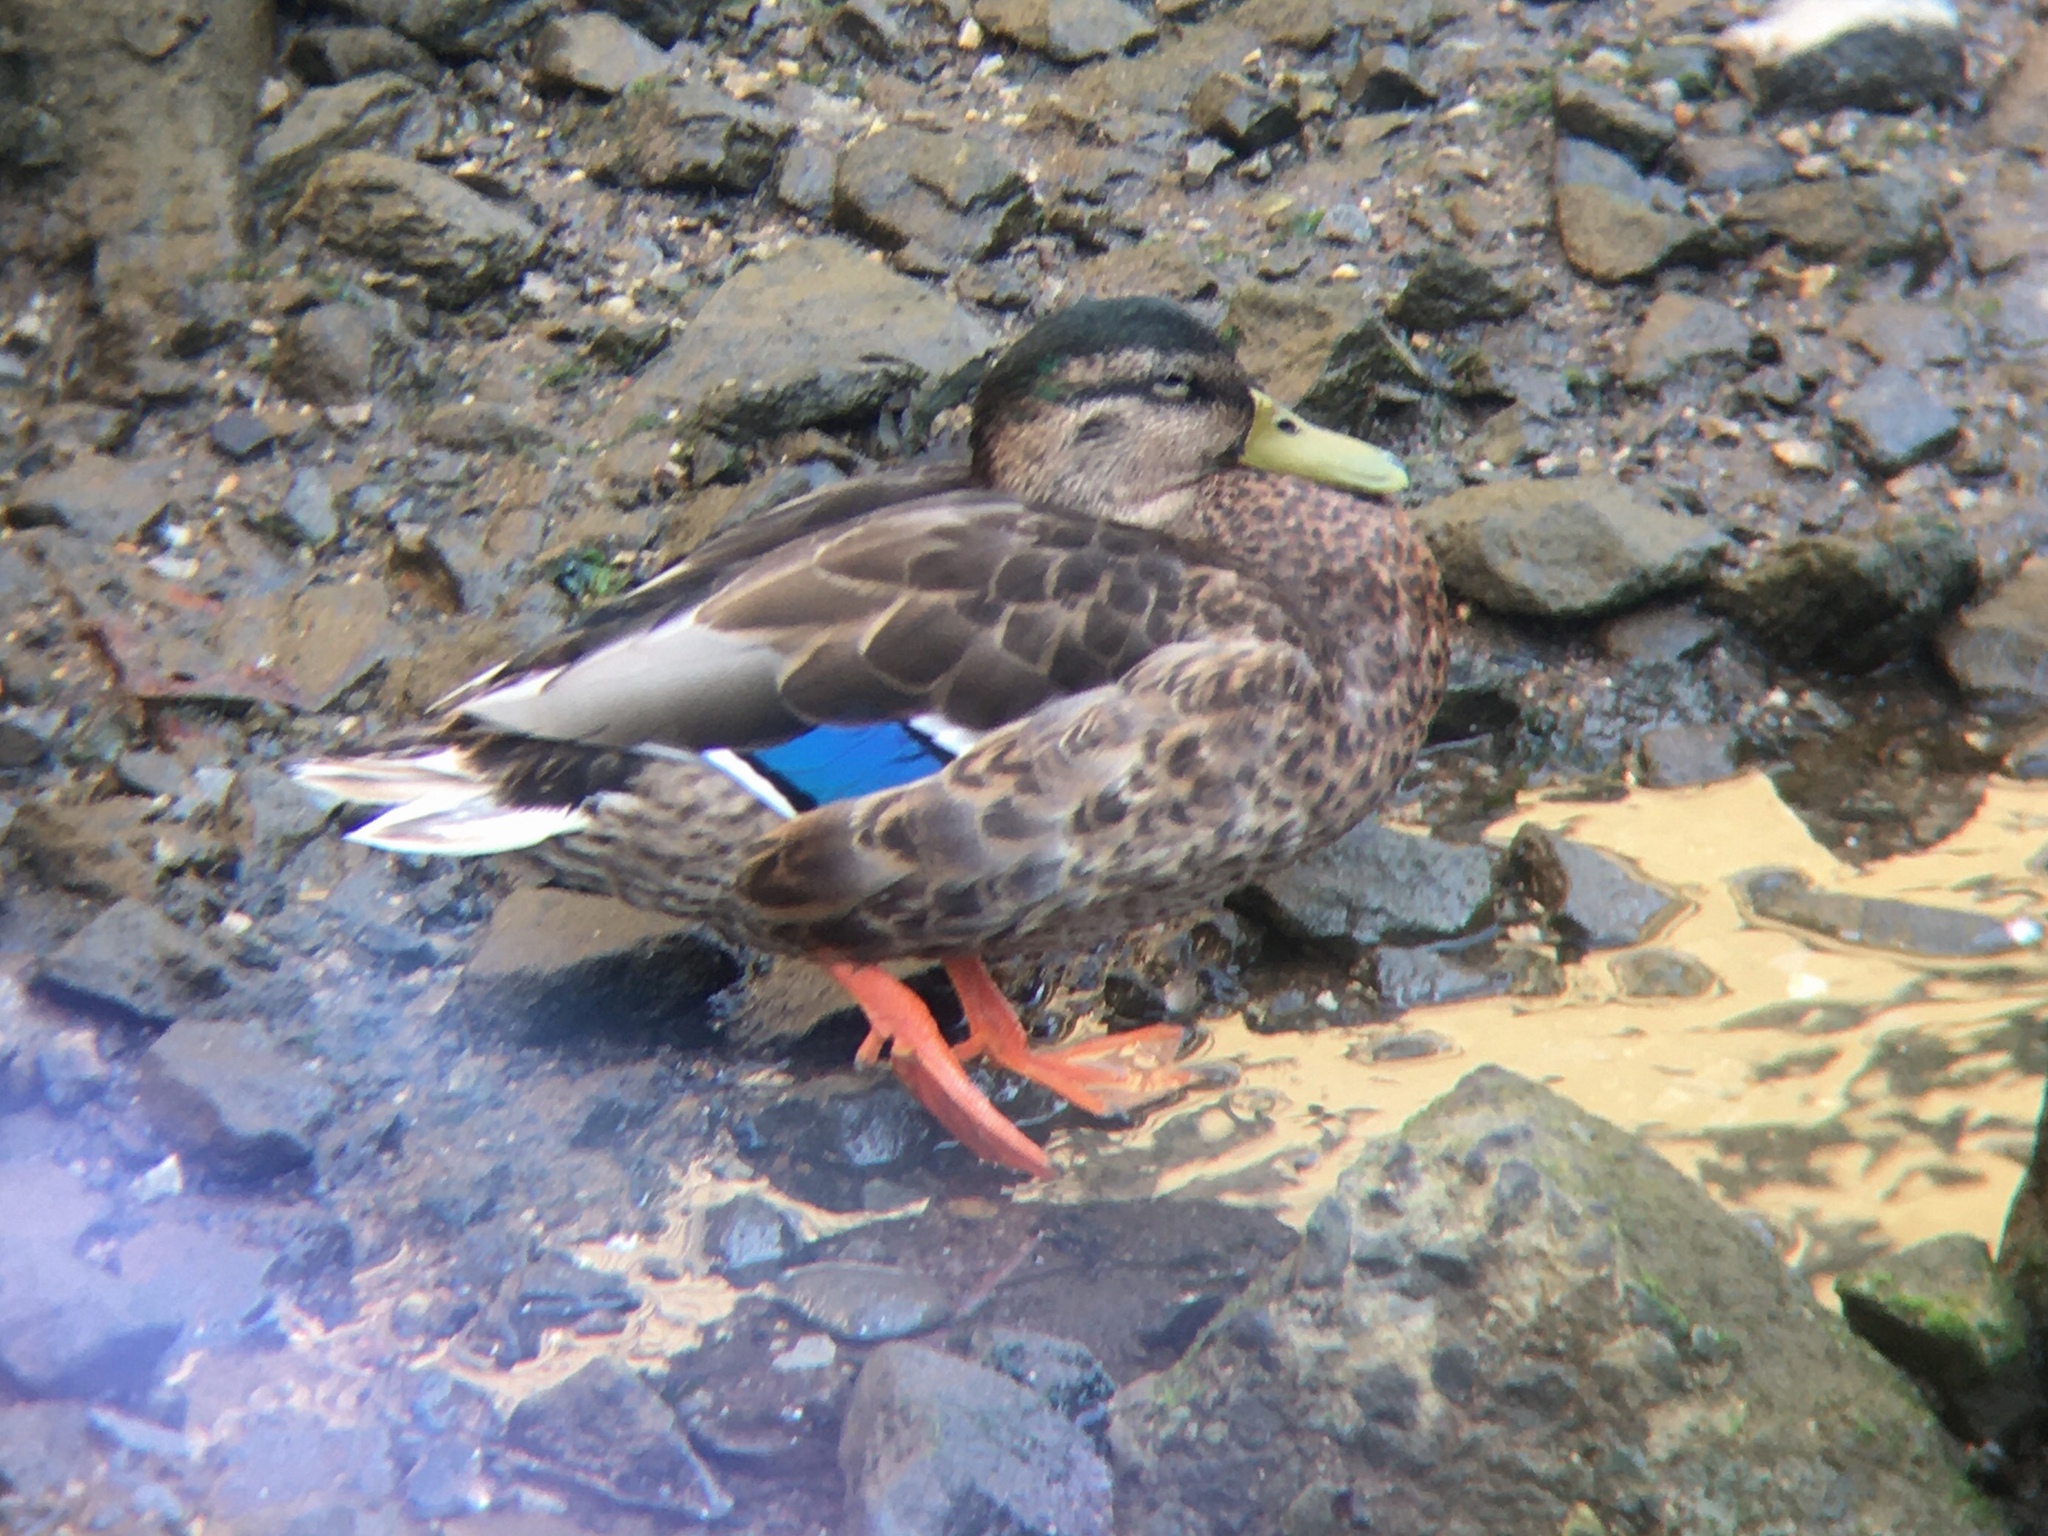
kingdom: Animalia
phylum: Chordata
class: Aves
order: Anseriformes
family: Anatidae
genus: Anas
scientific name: Anas platyrhynchos
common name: Mallard
